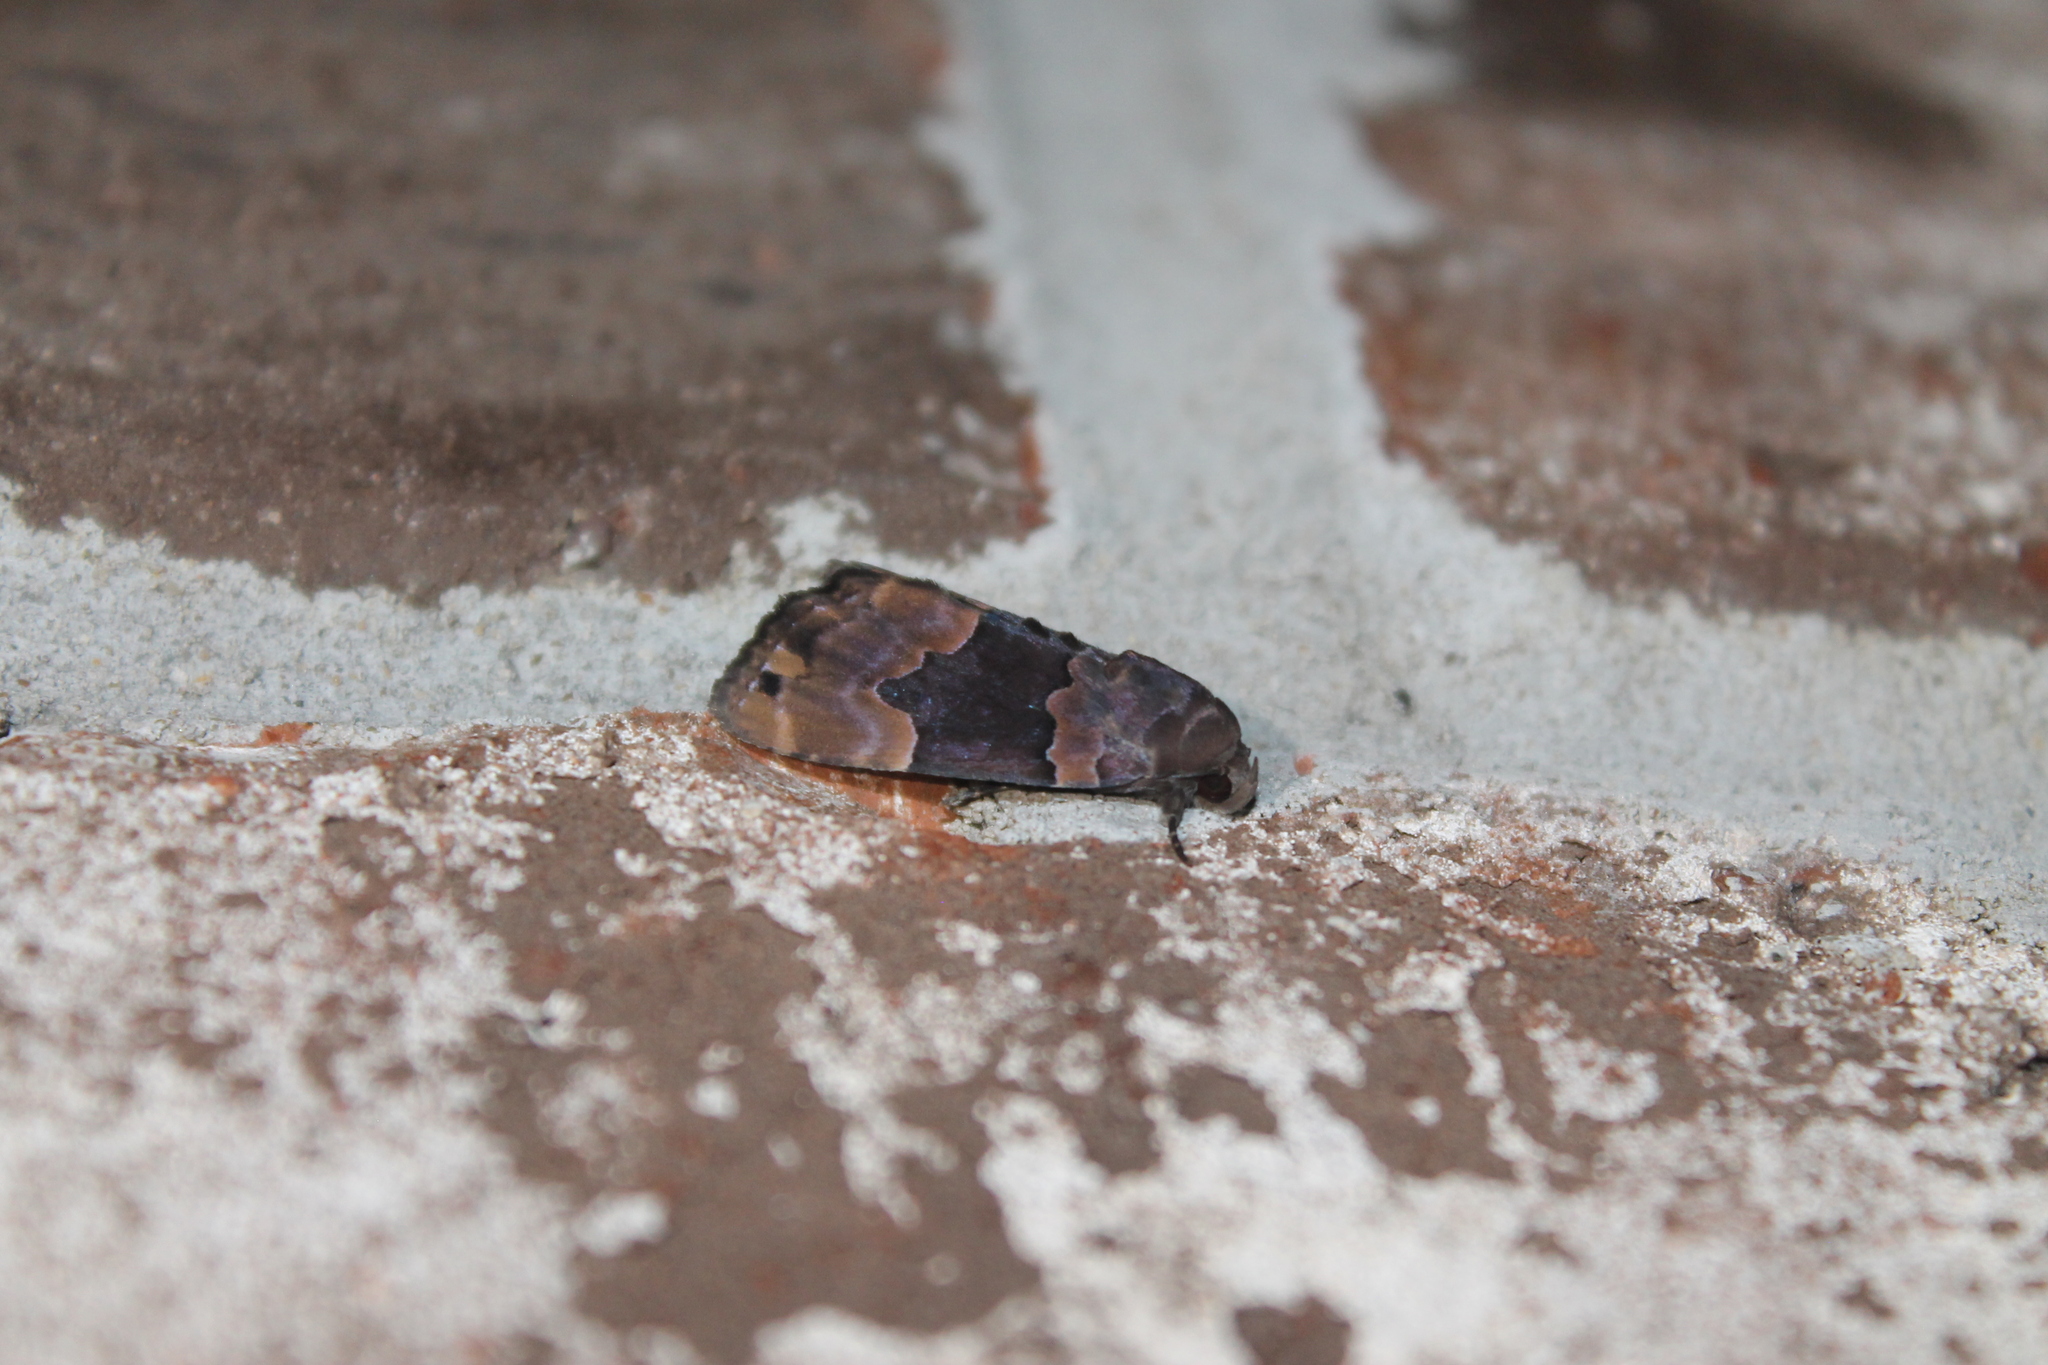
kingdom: Animalia
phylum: Arthropoda
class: Insecta
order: Lepidoptera
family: Erebidae
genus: Dinumma
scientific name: Dinumma deponens
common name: Purplish moth
